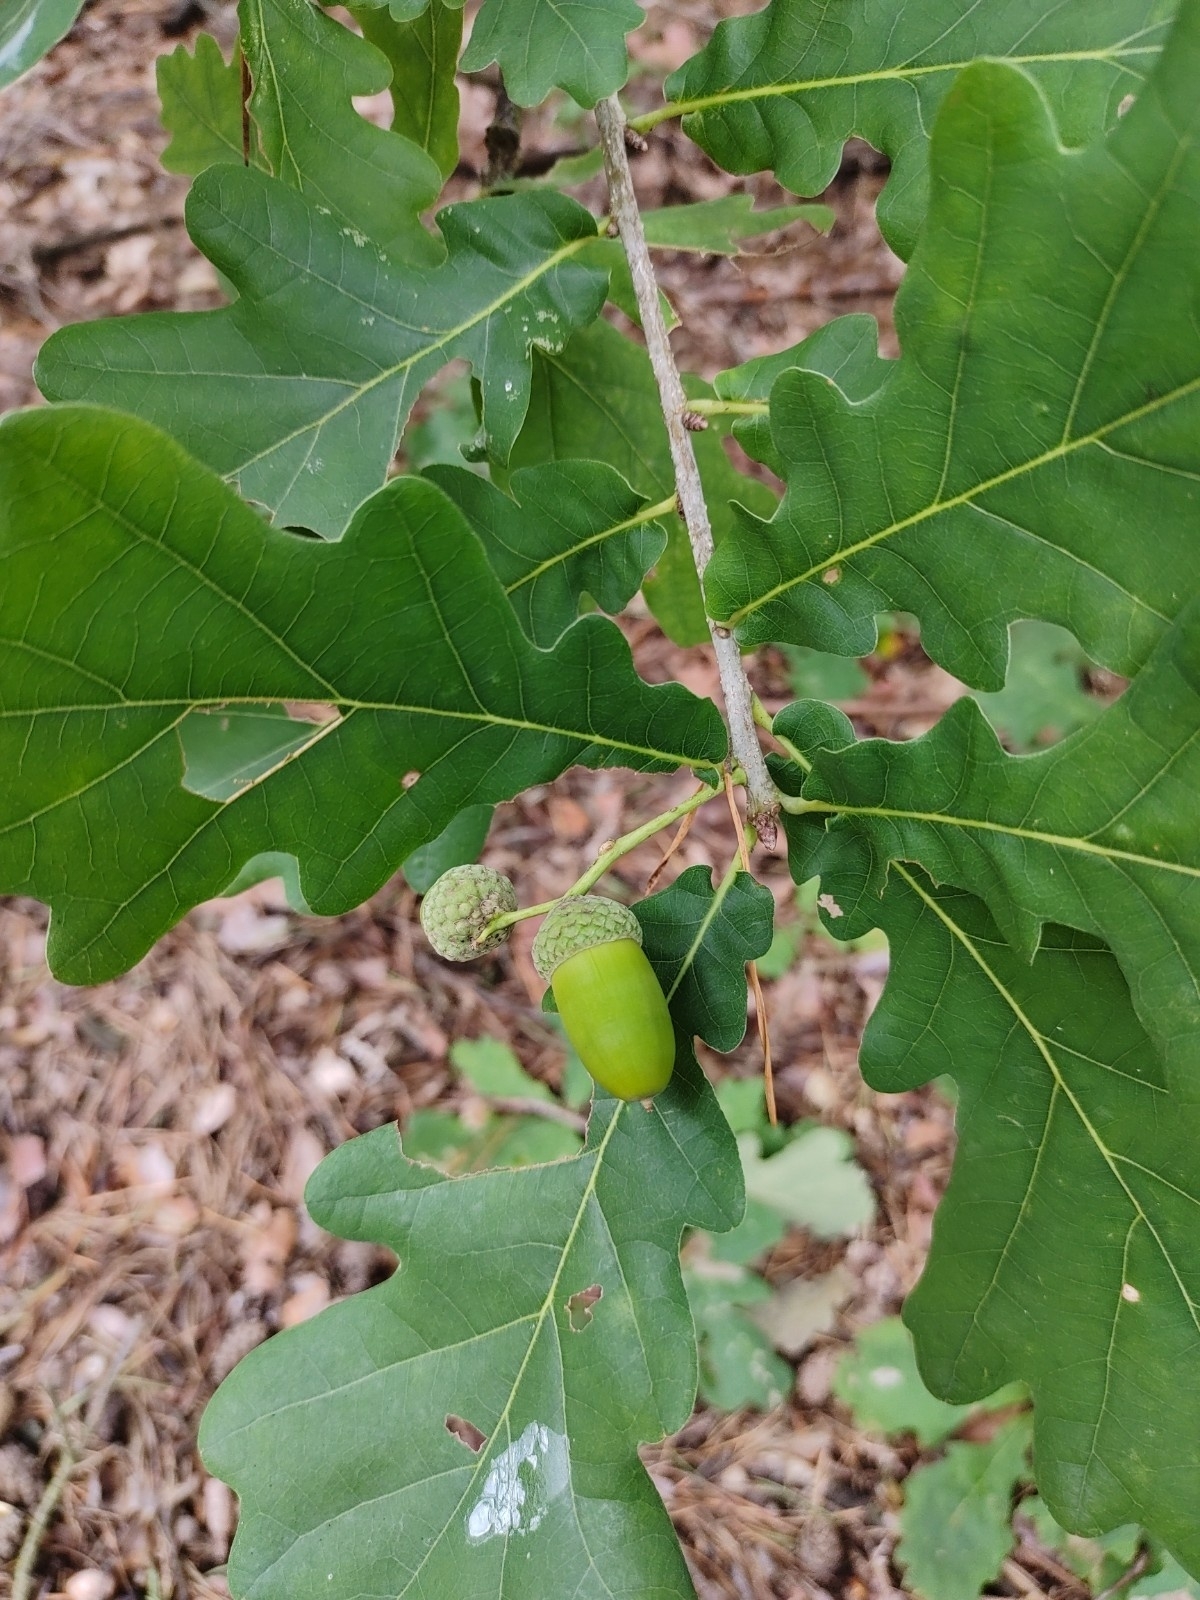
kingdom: Plantae
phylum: Tracheophyta
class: Magnoliopsida
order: Fagales
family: Fagaceae
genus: Quercus
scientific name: Quercus robur
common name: Pedunculate oak
